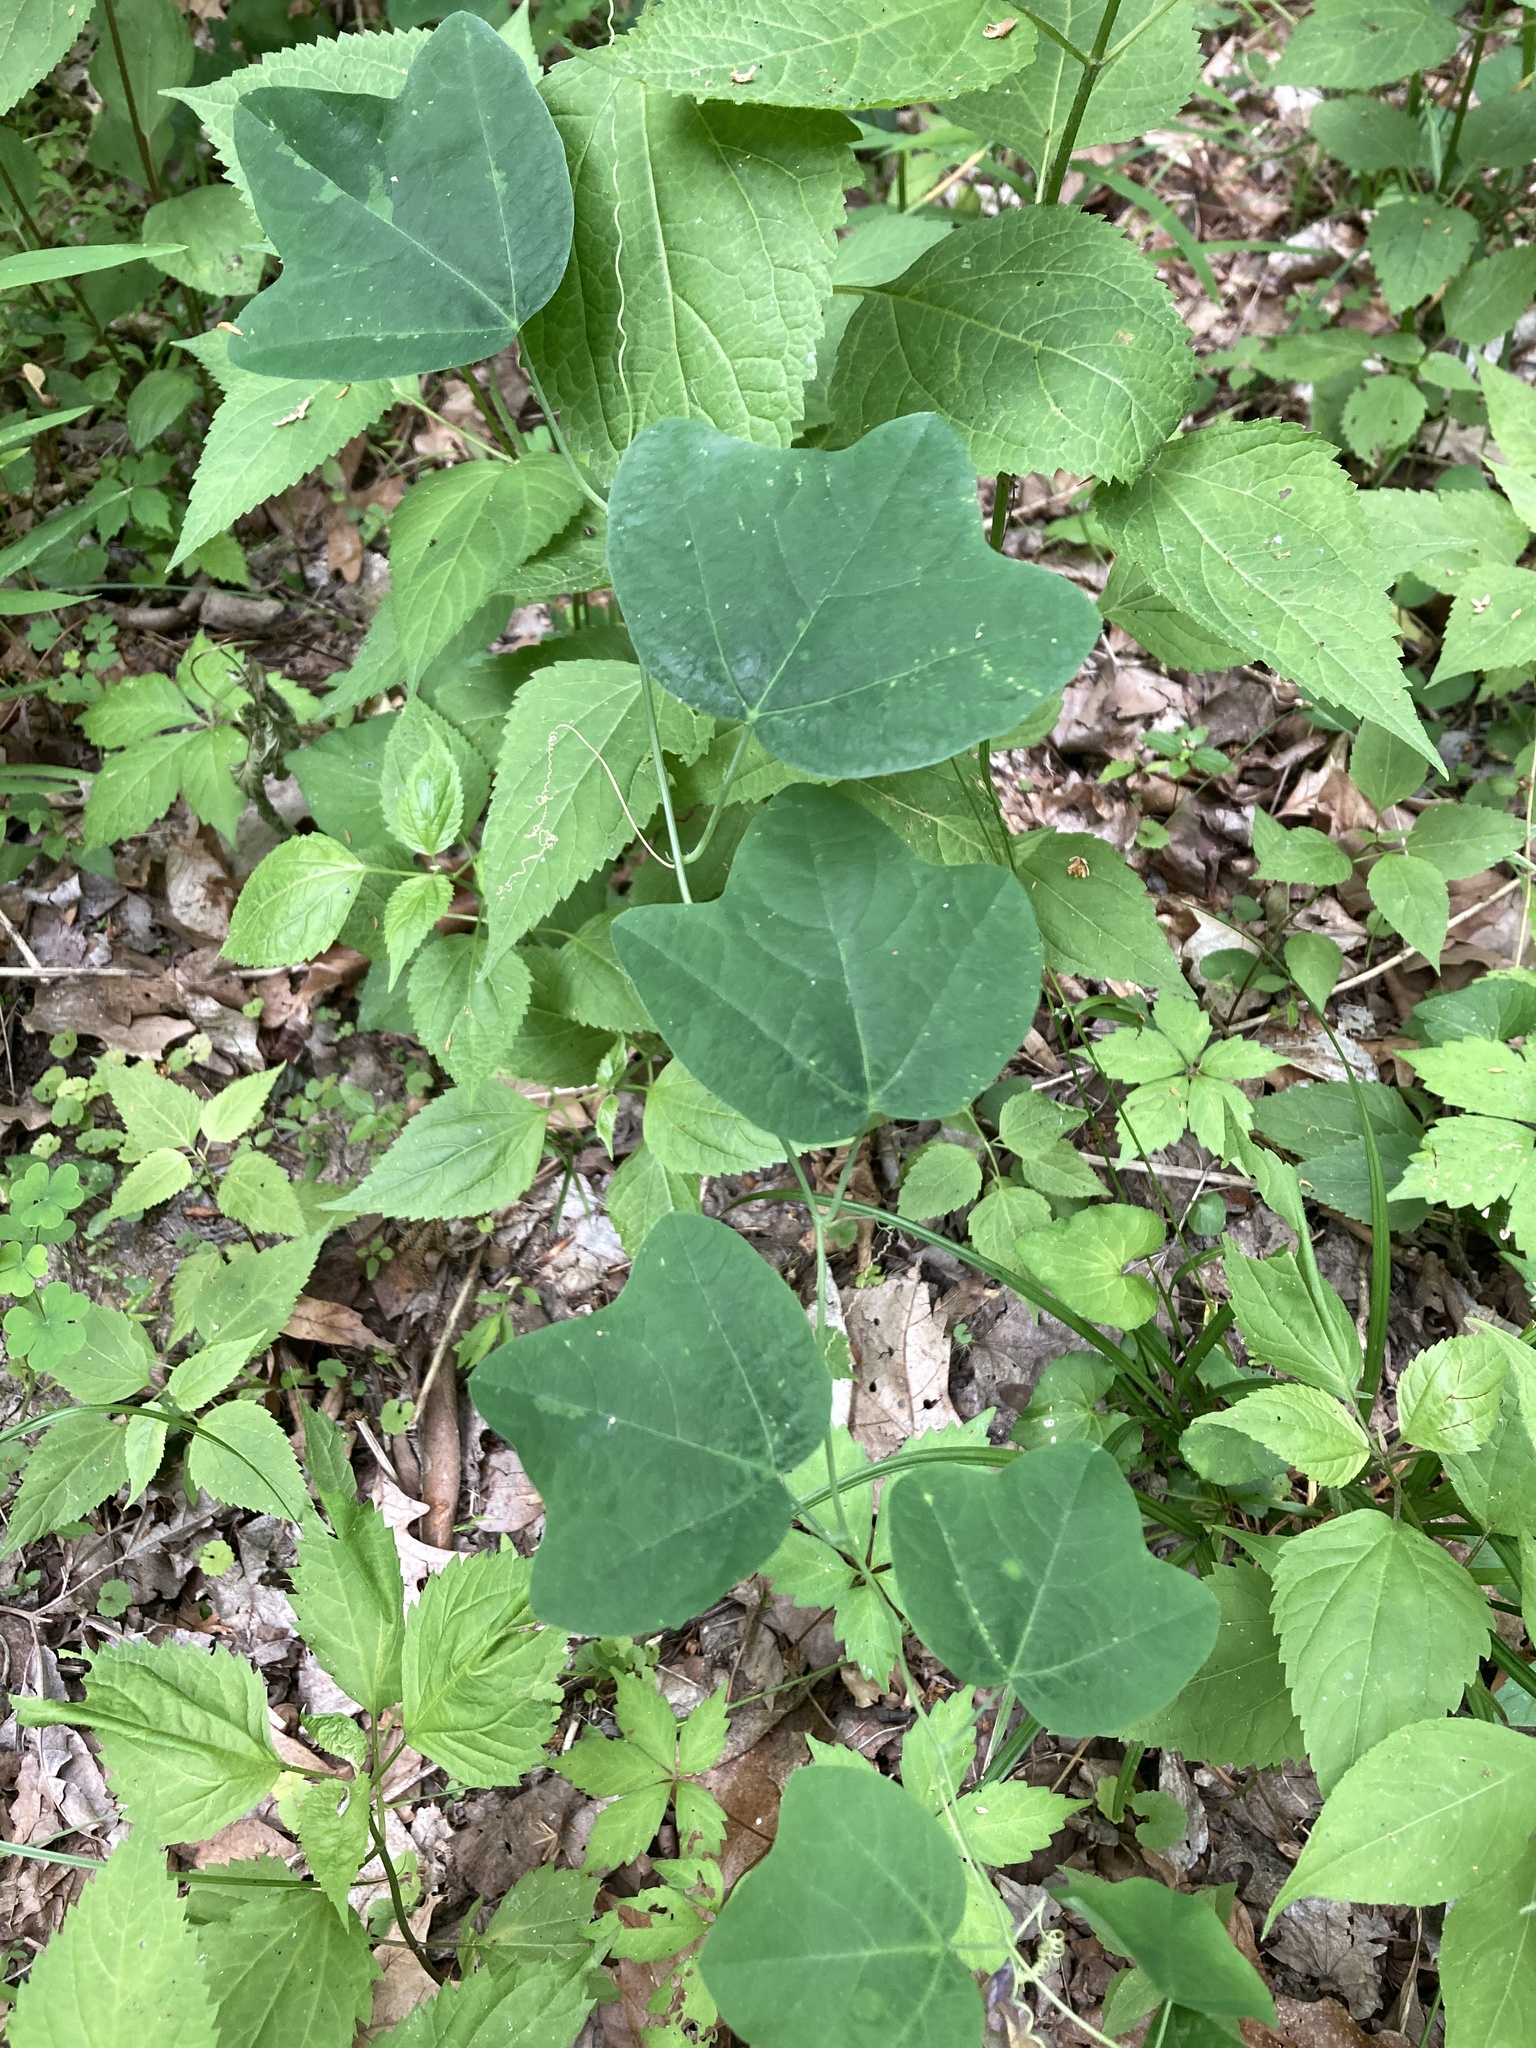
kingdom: Plantae
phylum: Tracheophyta
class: Magnoliopsida
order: Malpighiales
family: Passifloraceae
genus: Passiflora
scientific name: Passiflora lutea
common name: Yellow passionflower
